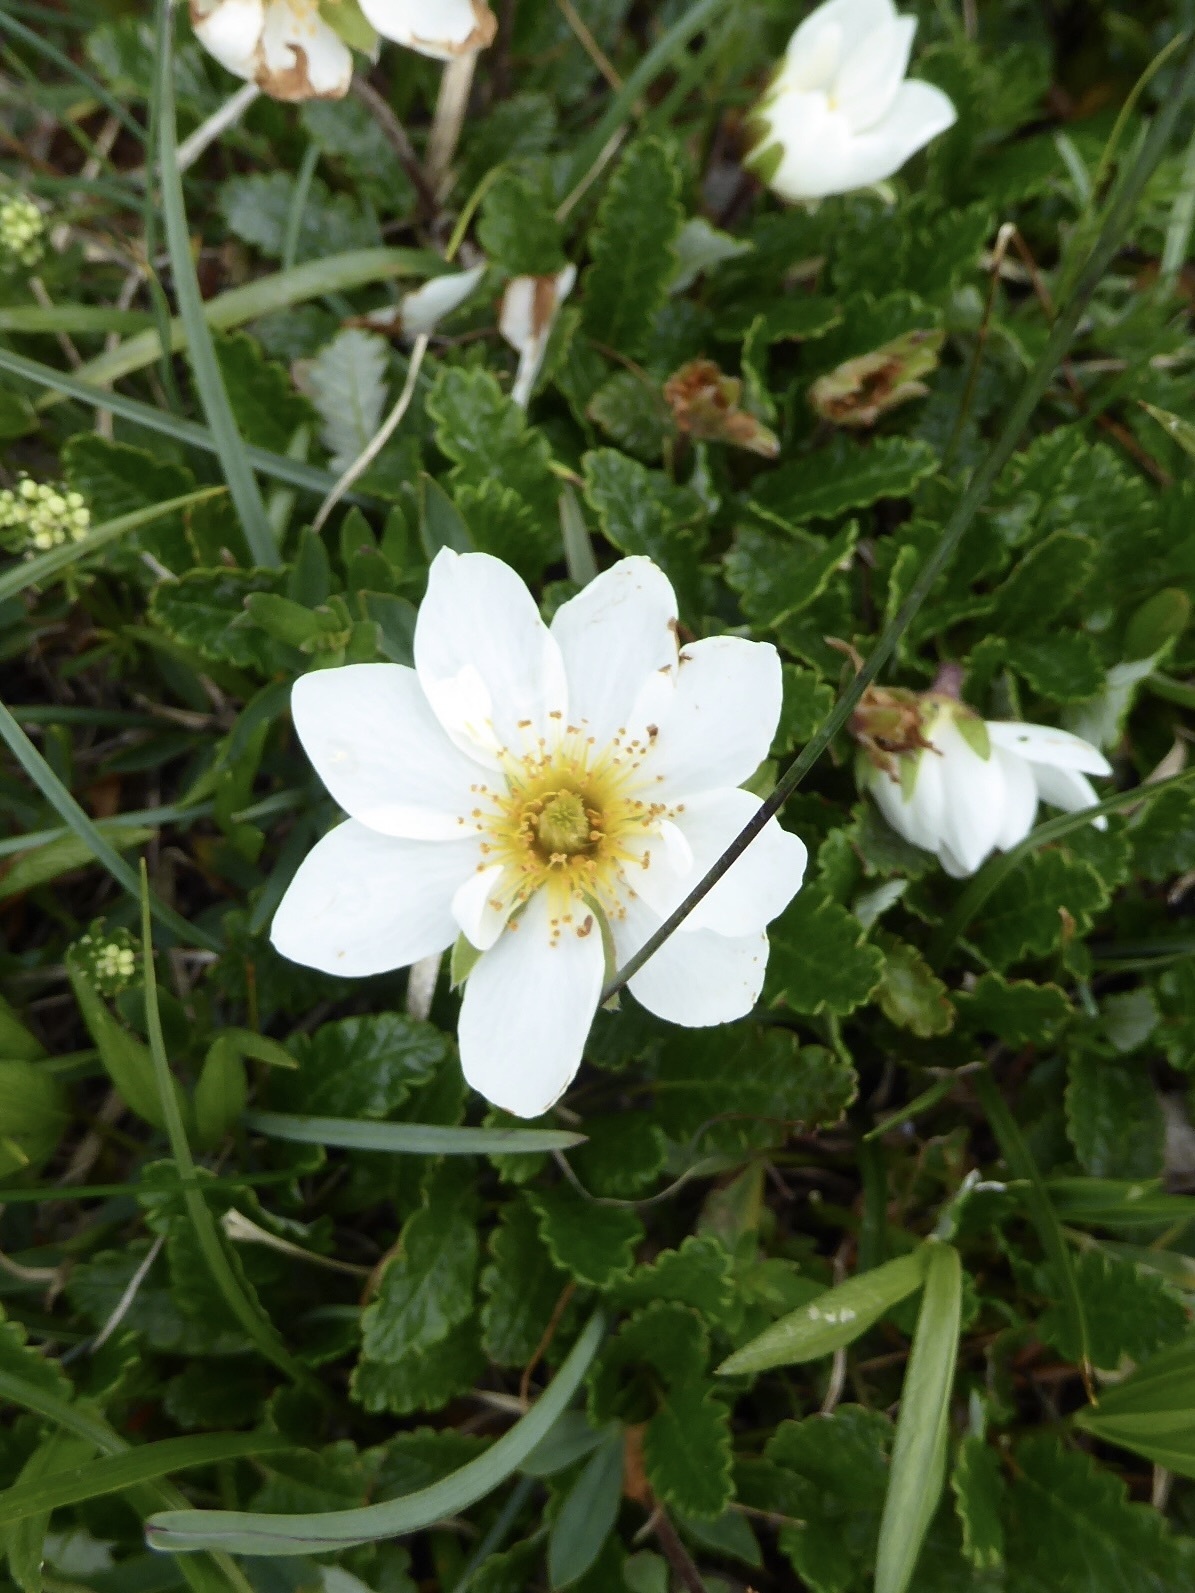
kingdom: Plantae
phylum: Tracheophyta
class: Magnoliopsida
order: Rosales
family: Rosaceae
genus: Dryas
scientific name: Dryas octopetala
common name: Eight-petal mountain-avens
